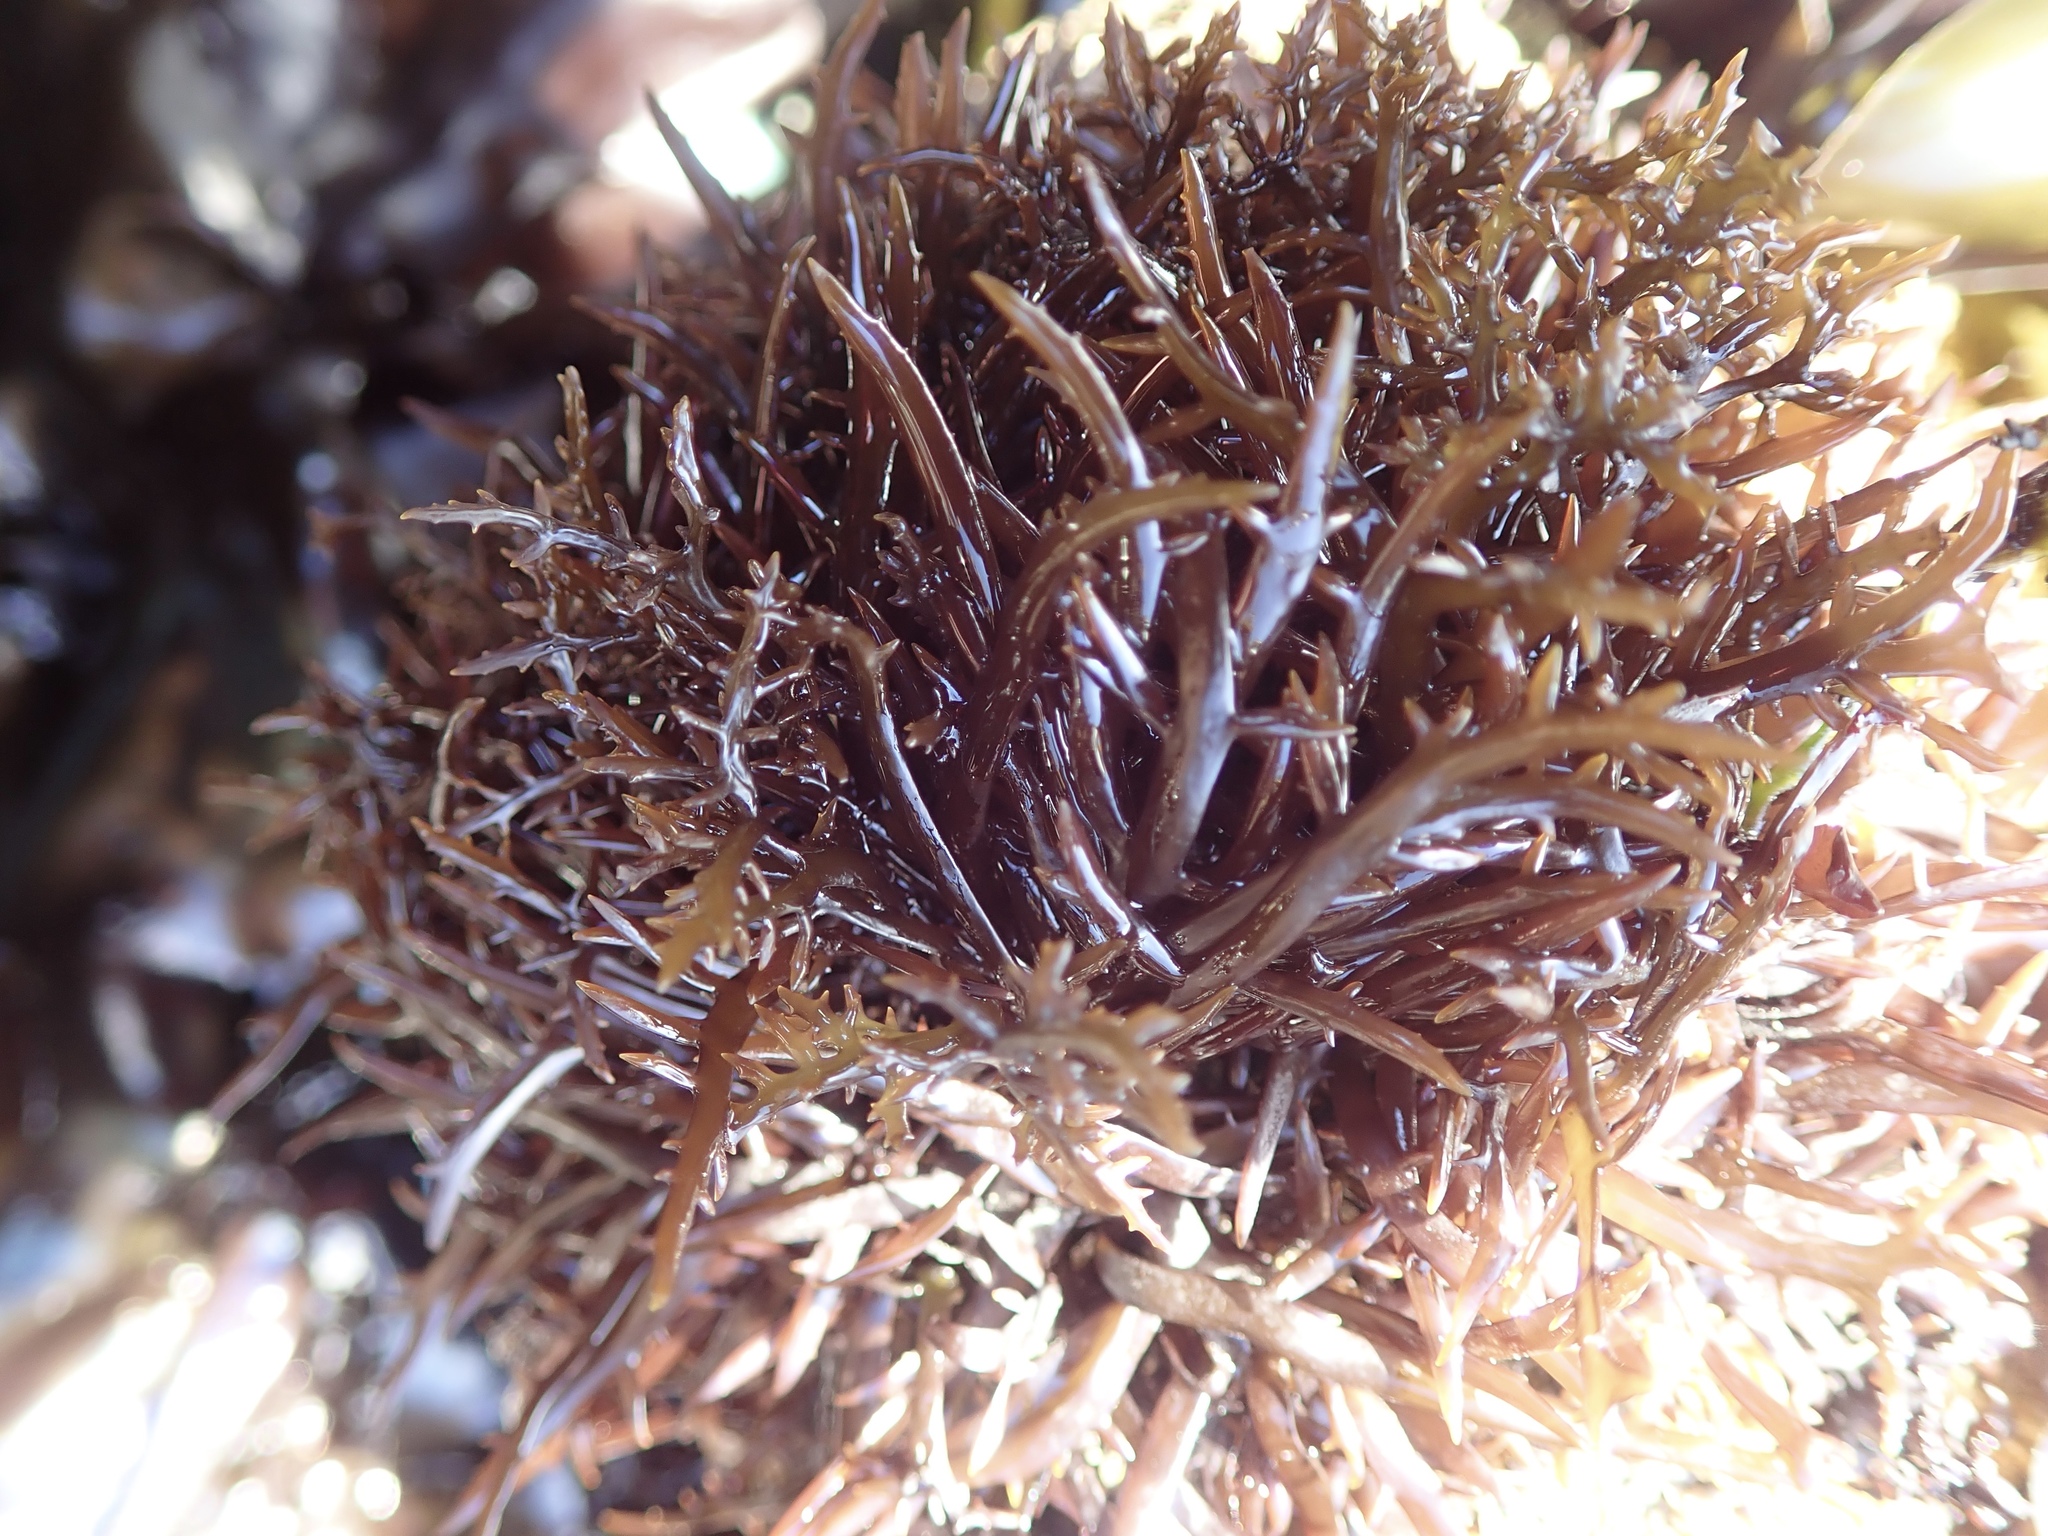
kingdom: Plantae
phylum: Rhodophyta
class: Florideophyceae
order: Gigartinales
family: Gigartinaceae
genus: Chondracanthus
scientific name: Chondracanthus canaliculatus
